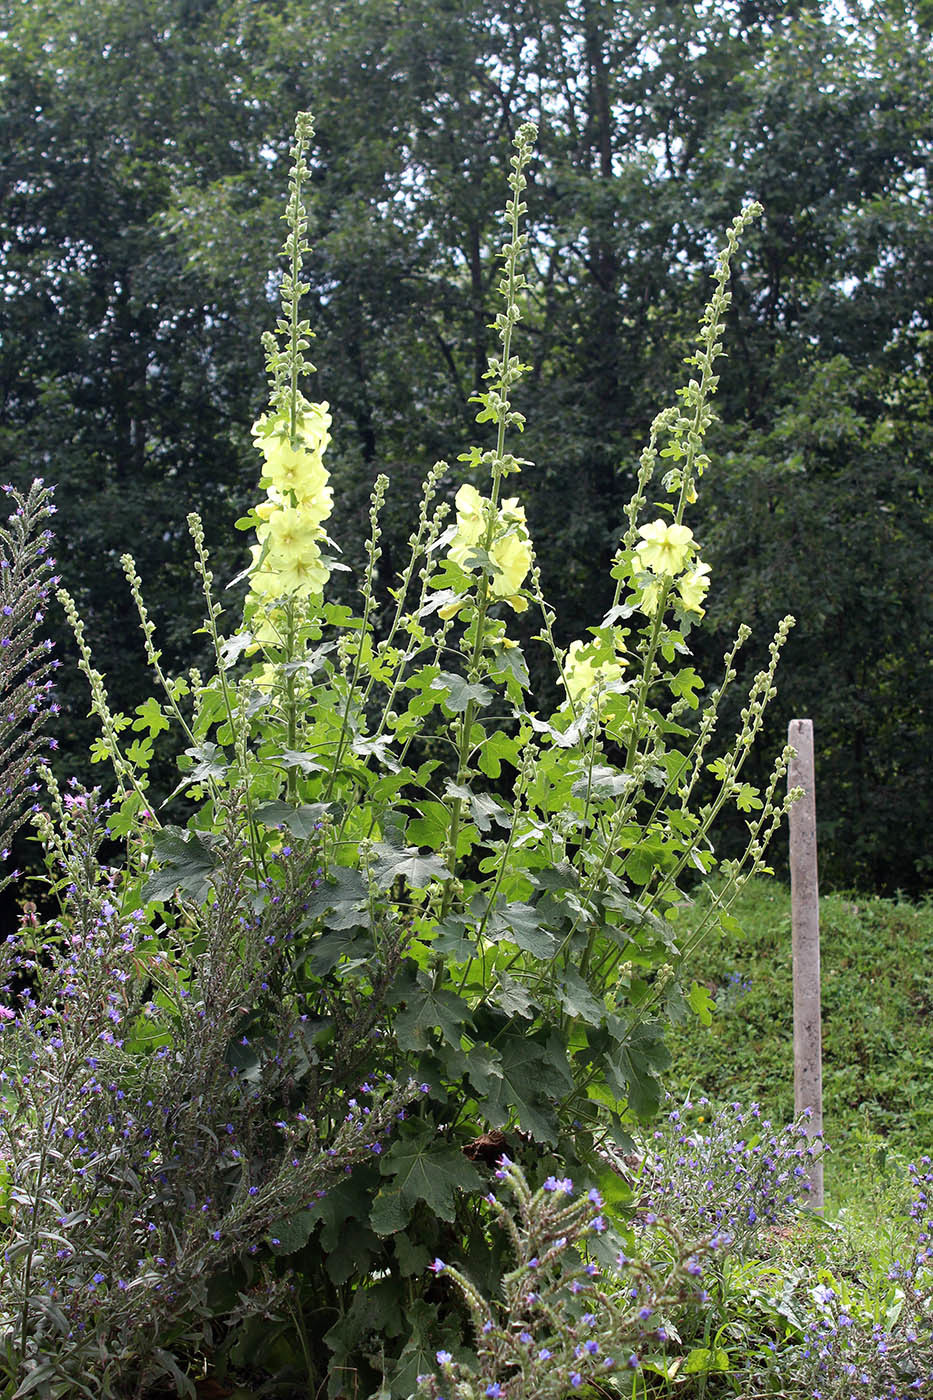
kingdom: Plantae
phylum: Tracheophyta
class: Magnoliopsida
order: Malvales
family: Malvaceae
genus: Alcea
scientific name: Alcea rugosa
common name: Russian hollyhock
